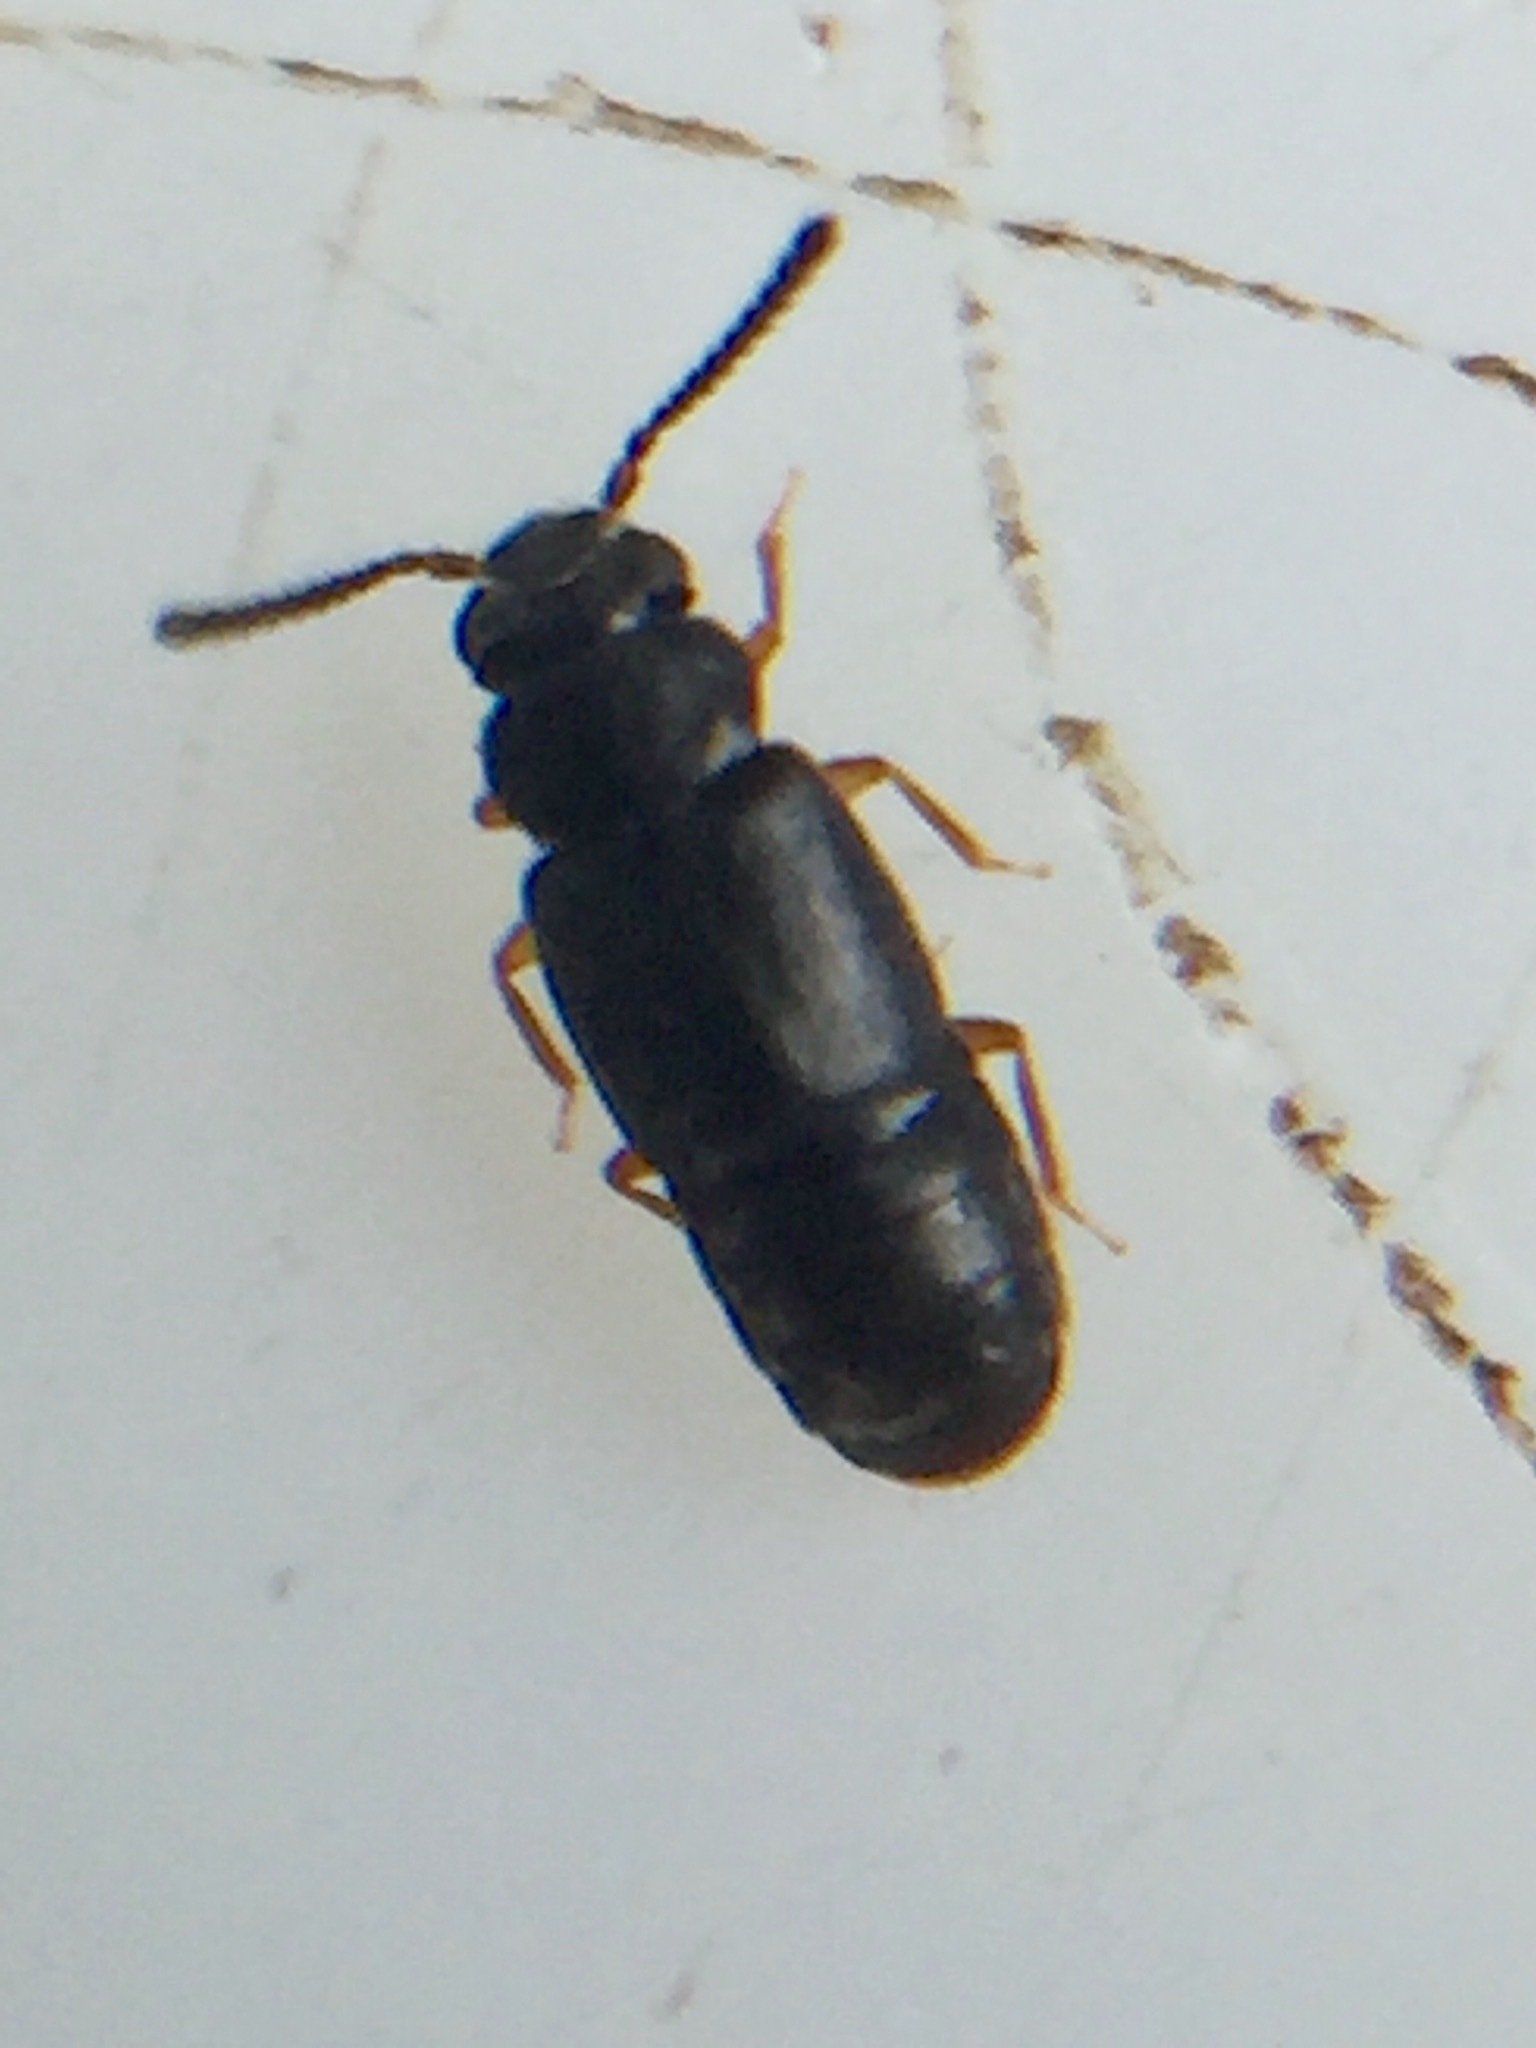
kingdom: Animalia
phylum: Arthropoda
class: Insecta
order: Coleoptera
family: Staphylinidae
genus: Nesoneus
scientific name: Nesoneus acuticeps
